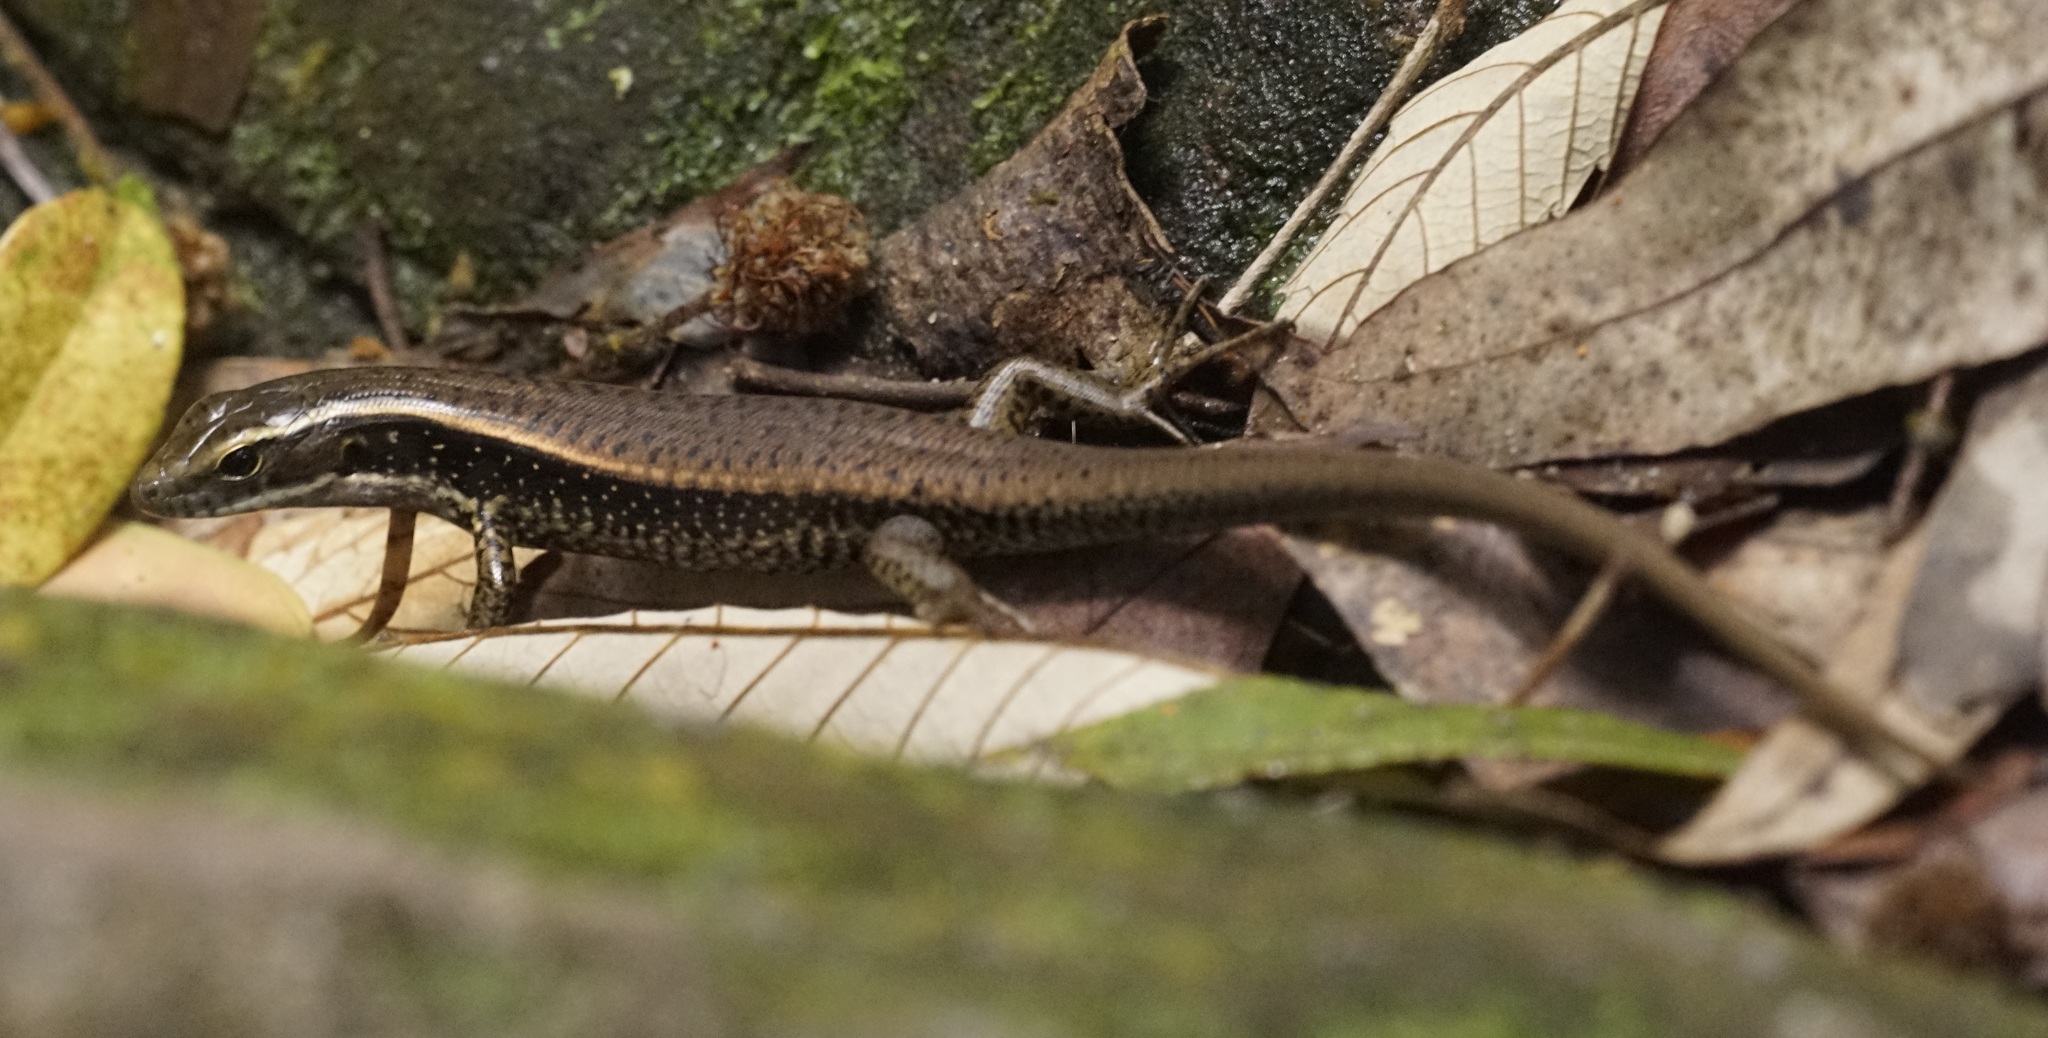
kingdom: Animalia
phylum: Chordata
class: Squamata
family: Scincidae
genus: Eulamprus
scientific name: Eulamprus quoyii
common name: Eastern water skink
